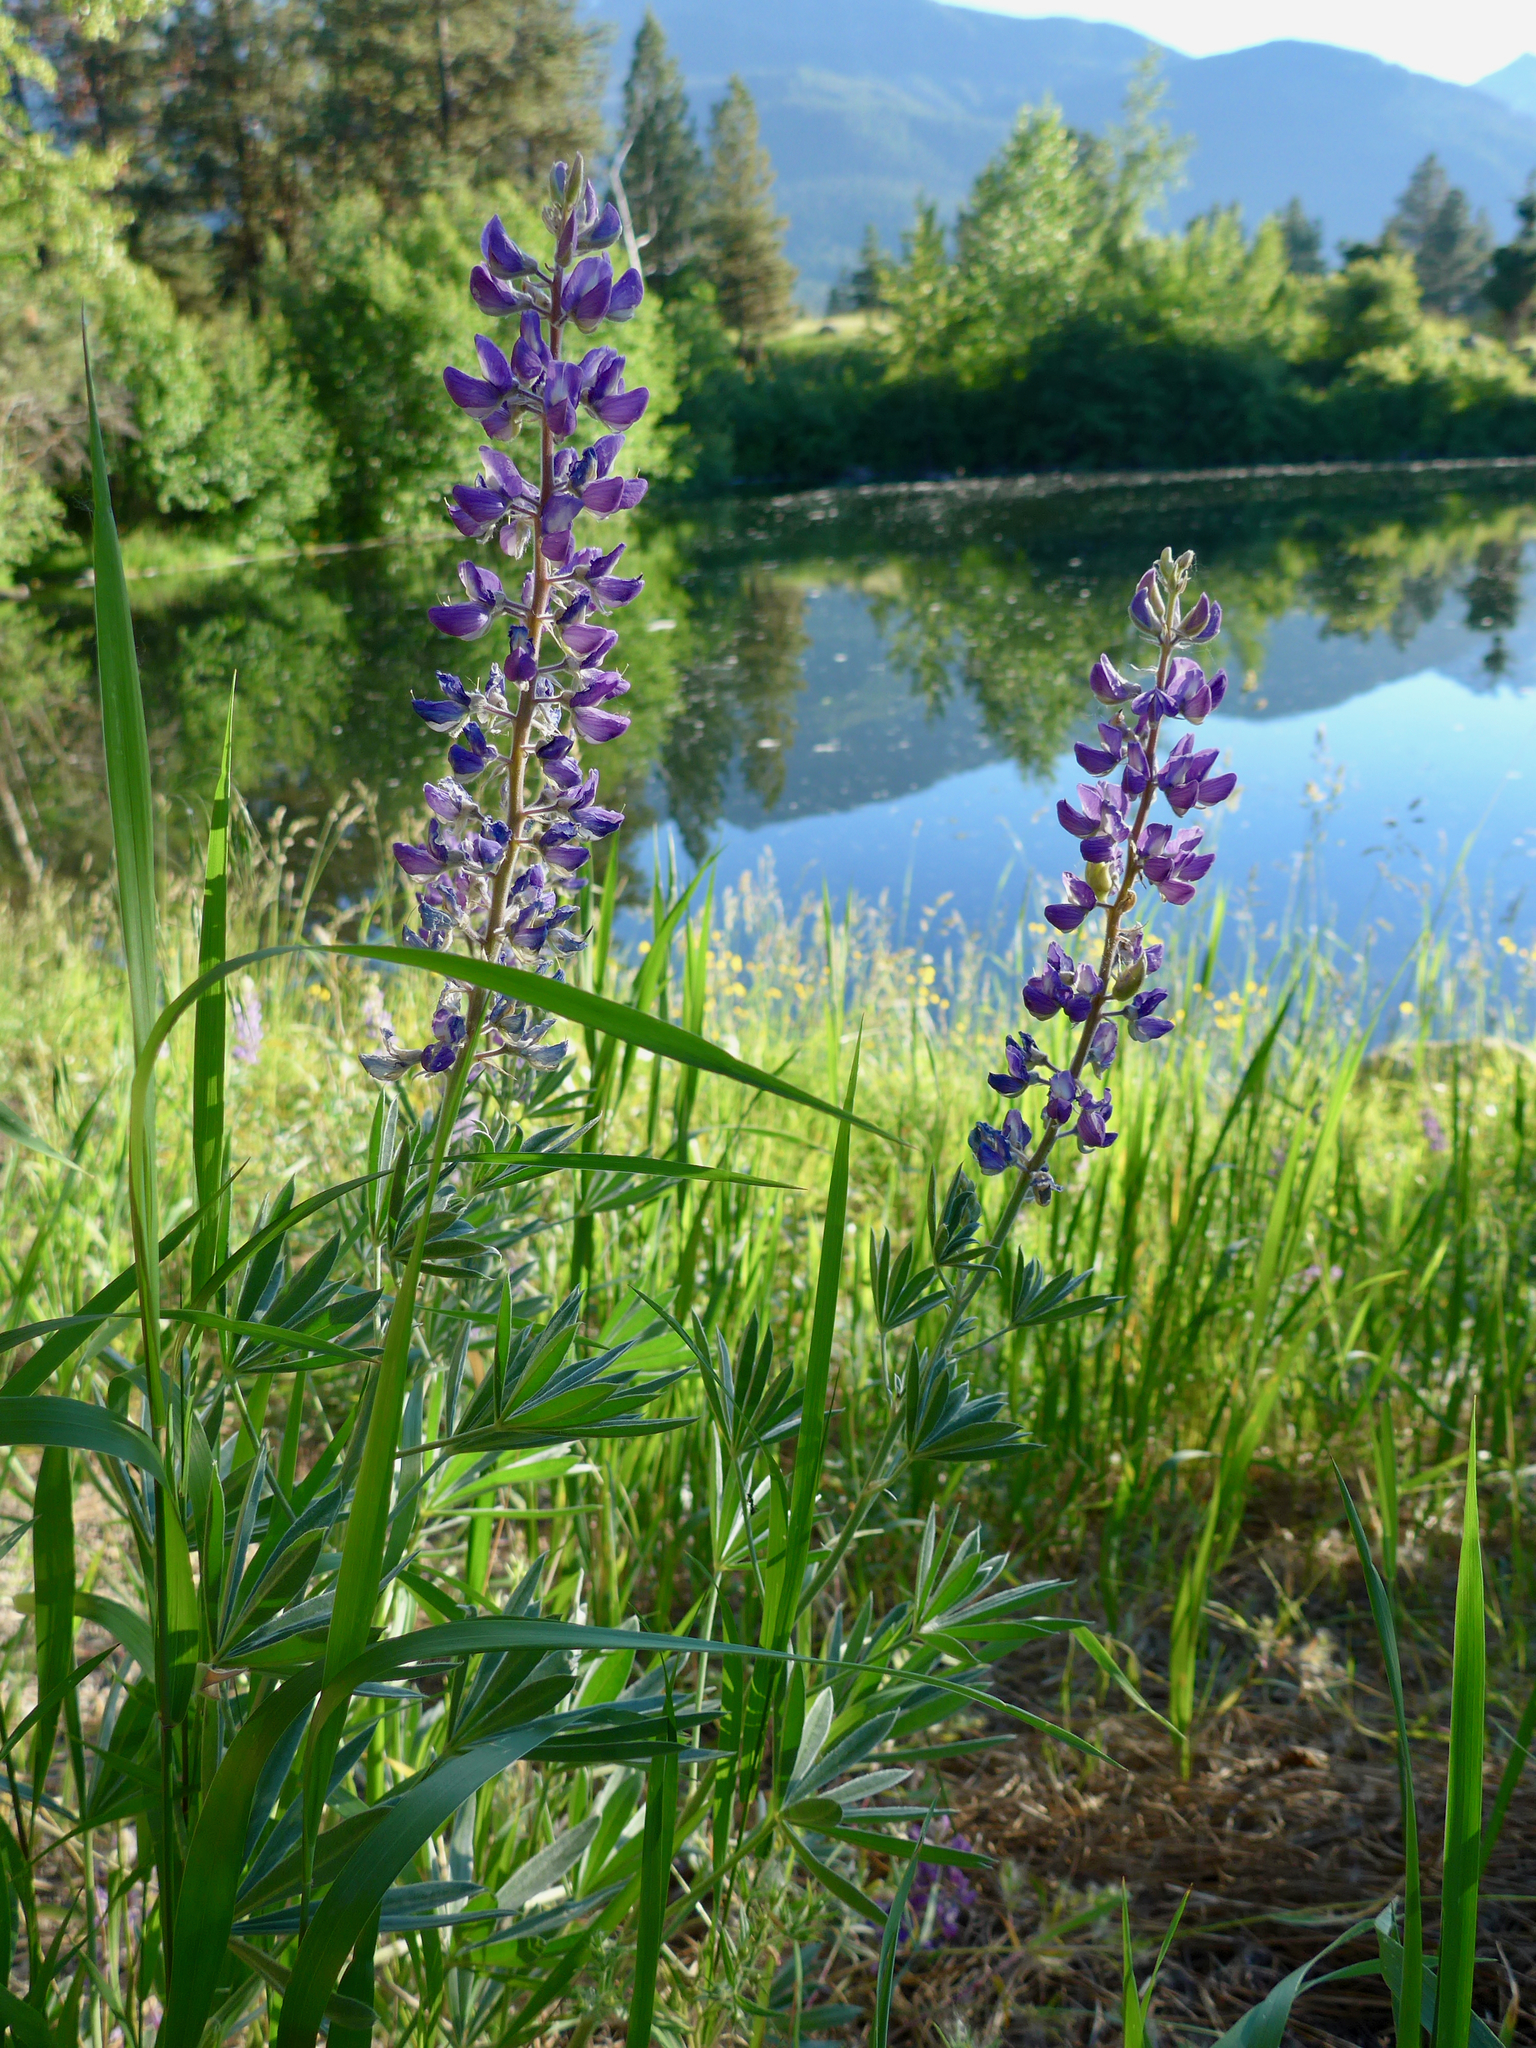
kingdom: Plantae
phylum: Tracheophyta
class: Magnoliopsida
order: Fabales
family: Fabaceae
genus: Lupinus
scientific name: Lupinus latifolius
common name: Broad-leaved lupine
